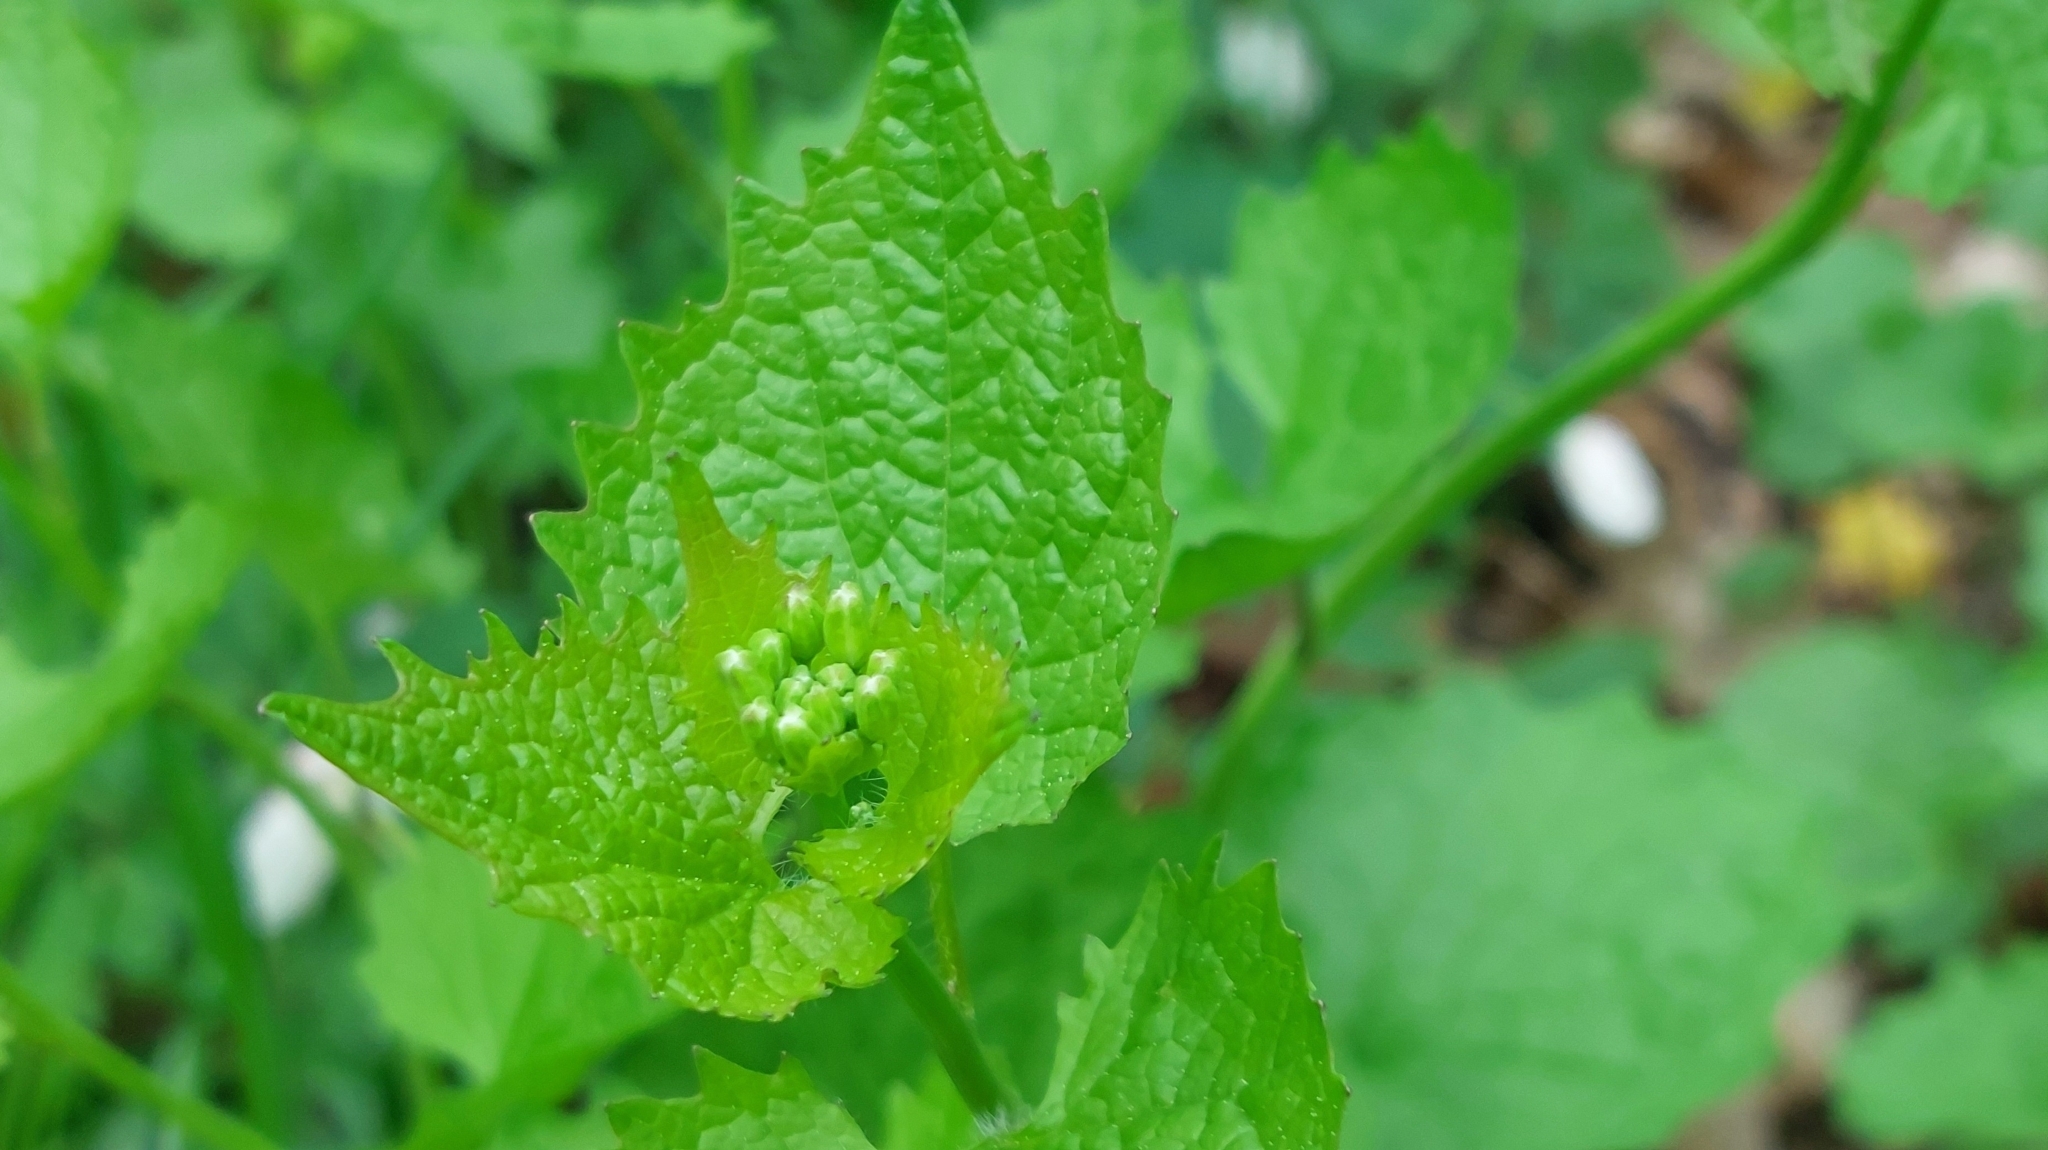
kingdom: Plantae
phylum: Tracheophyta
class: Magnoliopsida
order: Brassicales
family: Brassicaceae
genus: Alliaria
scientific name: Alliaria petiolata
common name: Garlic mustard
